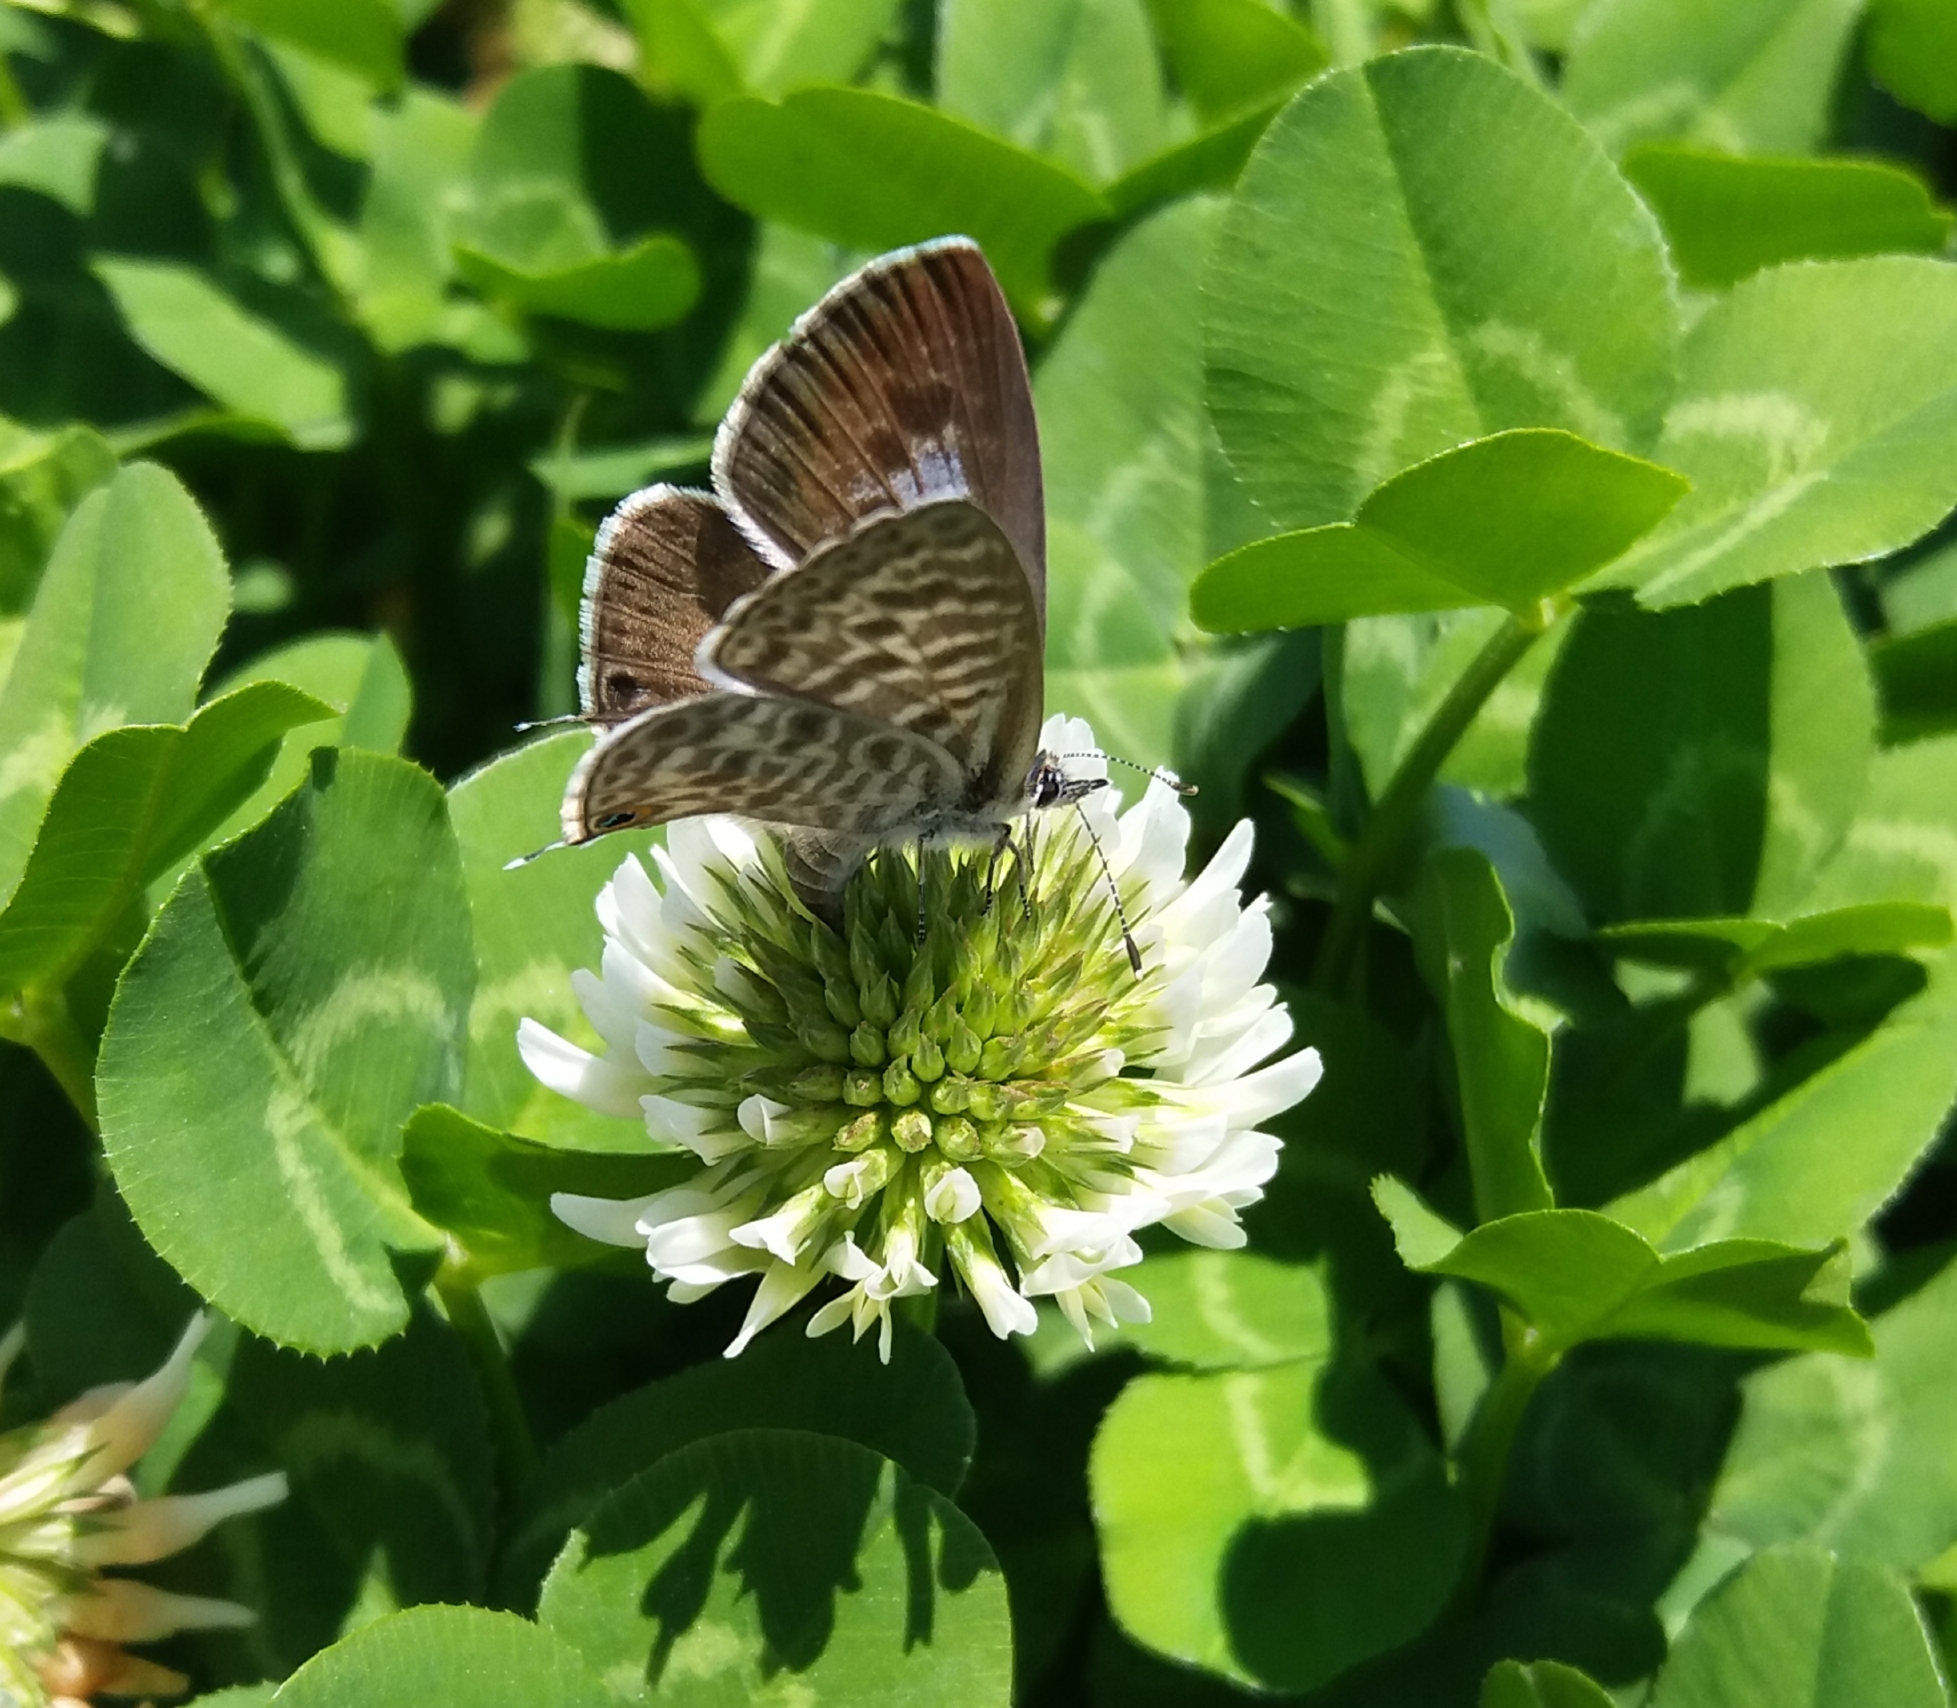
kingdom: Animalia
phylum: Arthropoda
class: Insecta
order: Lepidoptera
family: Lycaenidae
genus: Leptotes
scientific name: Leptotes pirithous
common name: Lang's short-tailed blue
